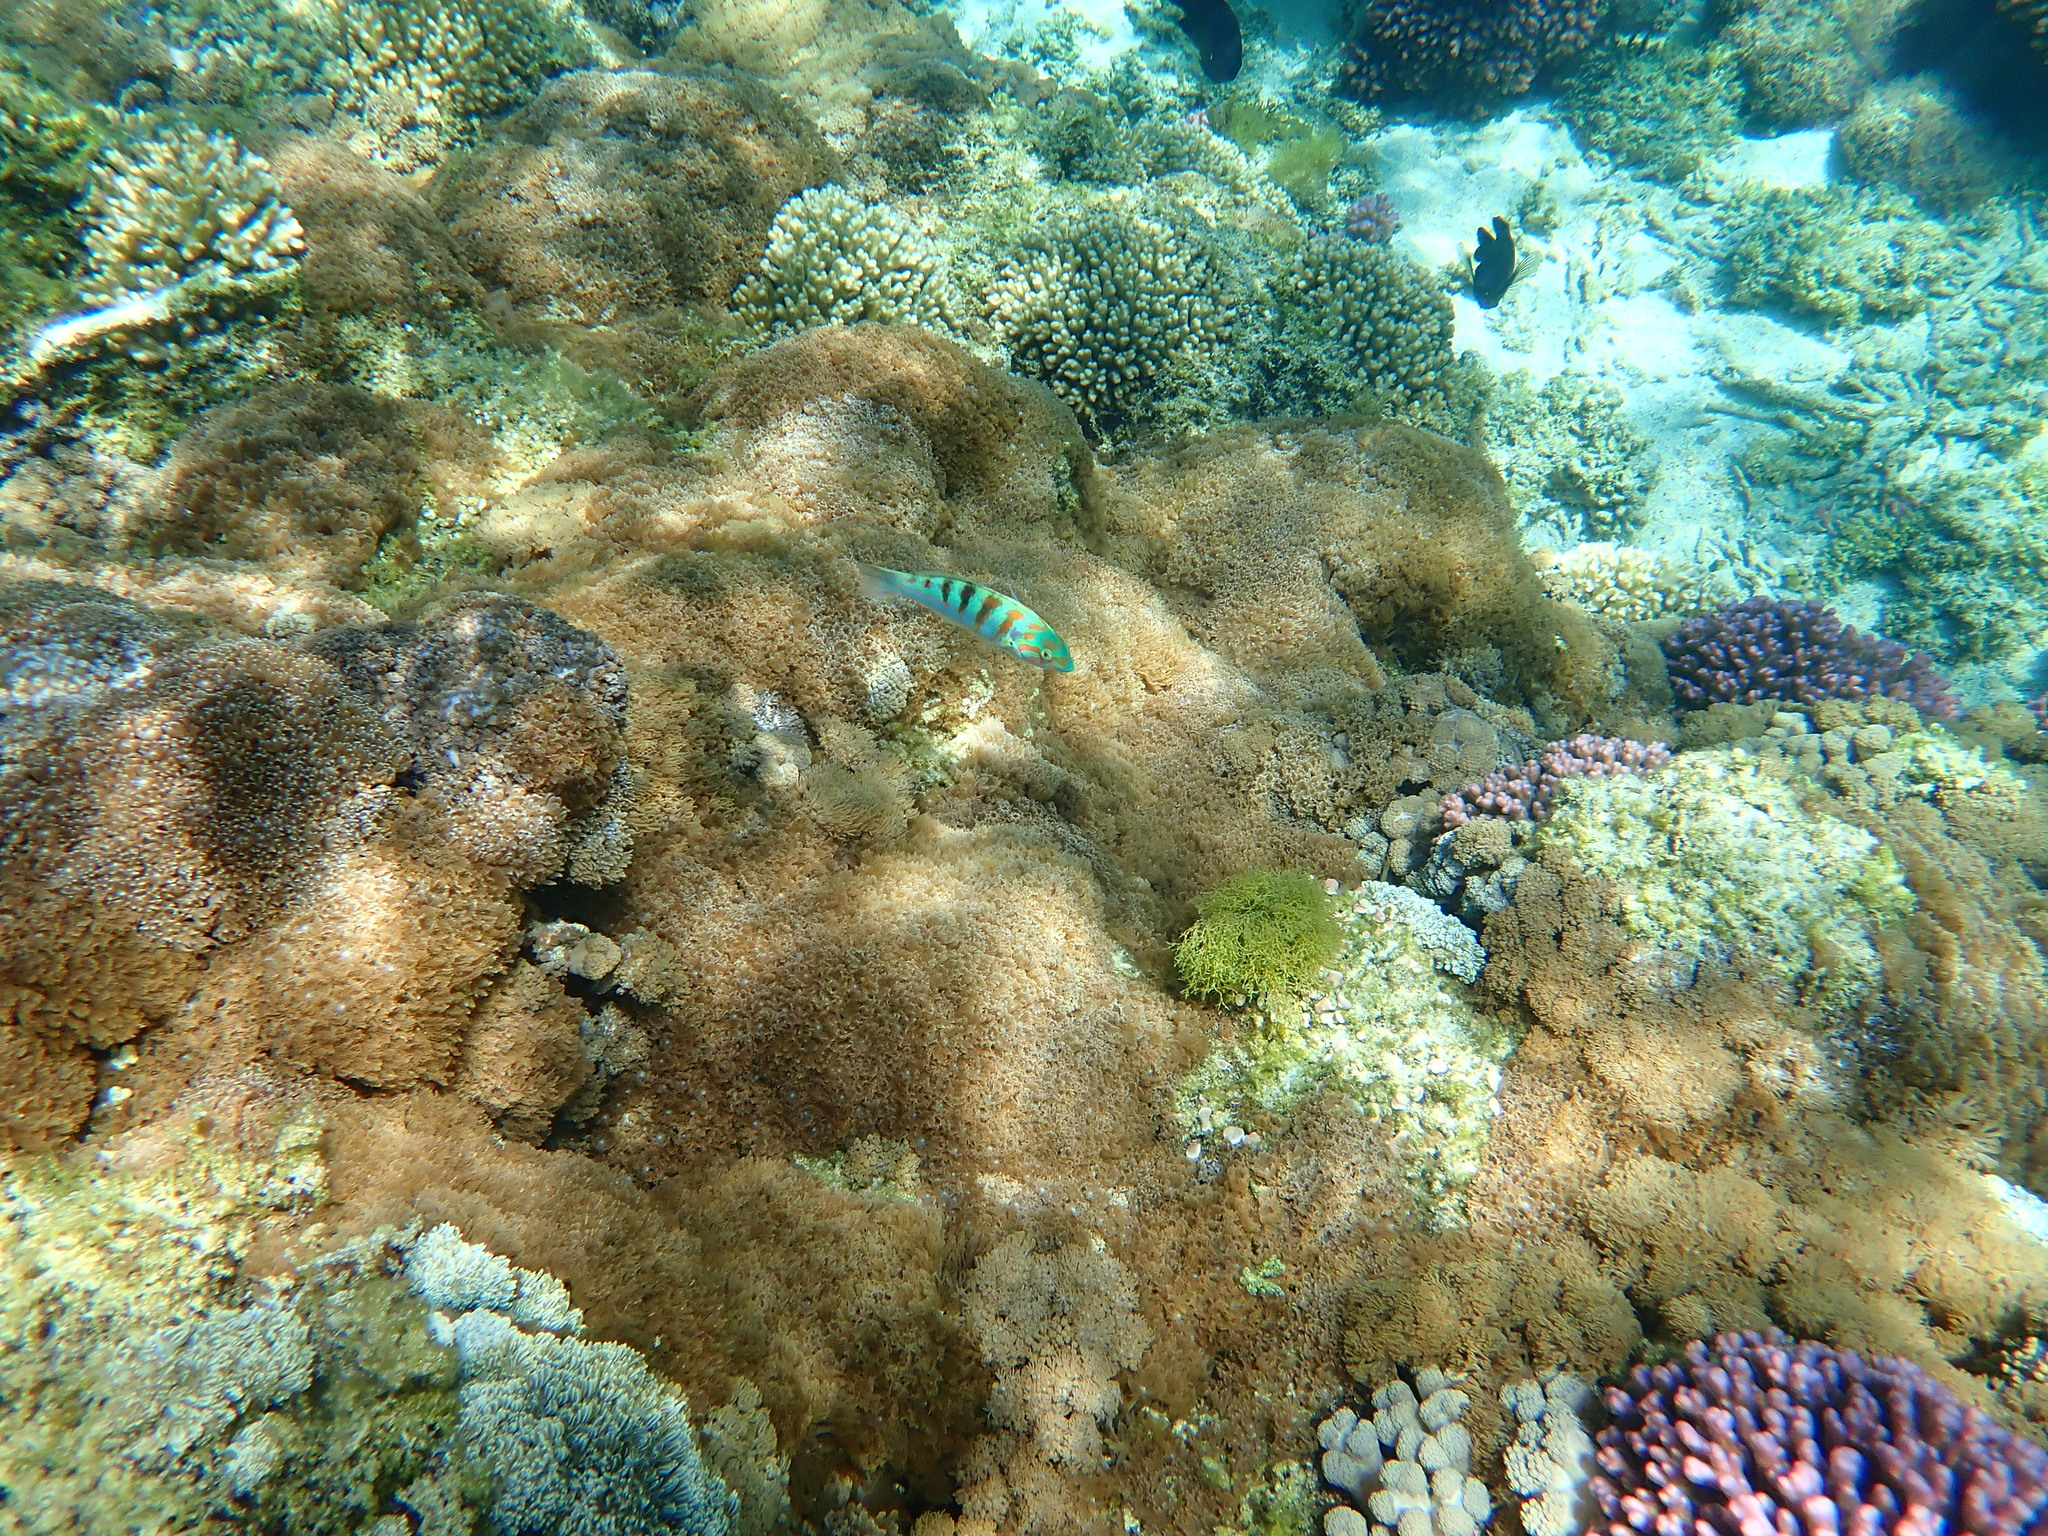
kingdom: Animalia
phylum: Chordata
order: Perciformes
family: Labridae
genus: Thalassoma
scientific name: Thalassoma hardwicke
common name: Sixbar wrasse
